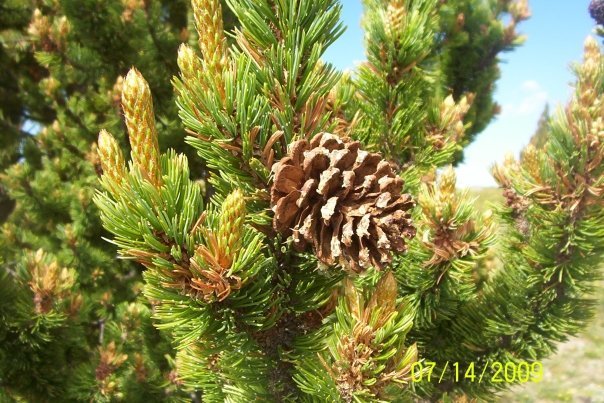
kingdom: Plantae
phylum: Tracheophyta
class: Pinopsida
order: Pinales
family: Pinaceae
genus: Pinus
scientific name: Pinus aristata
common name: Colorado bristlecone pine
